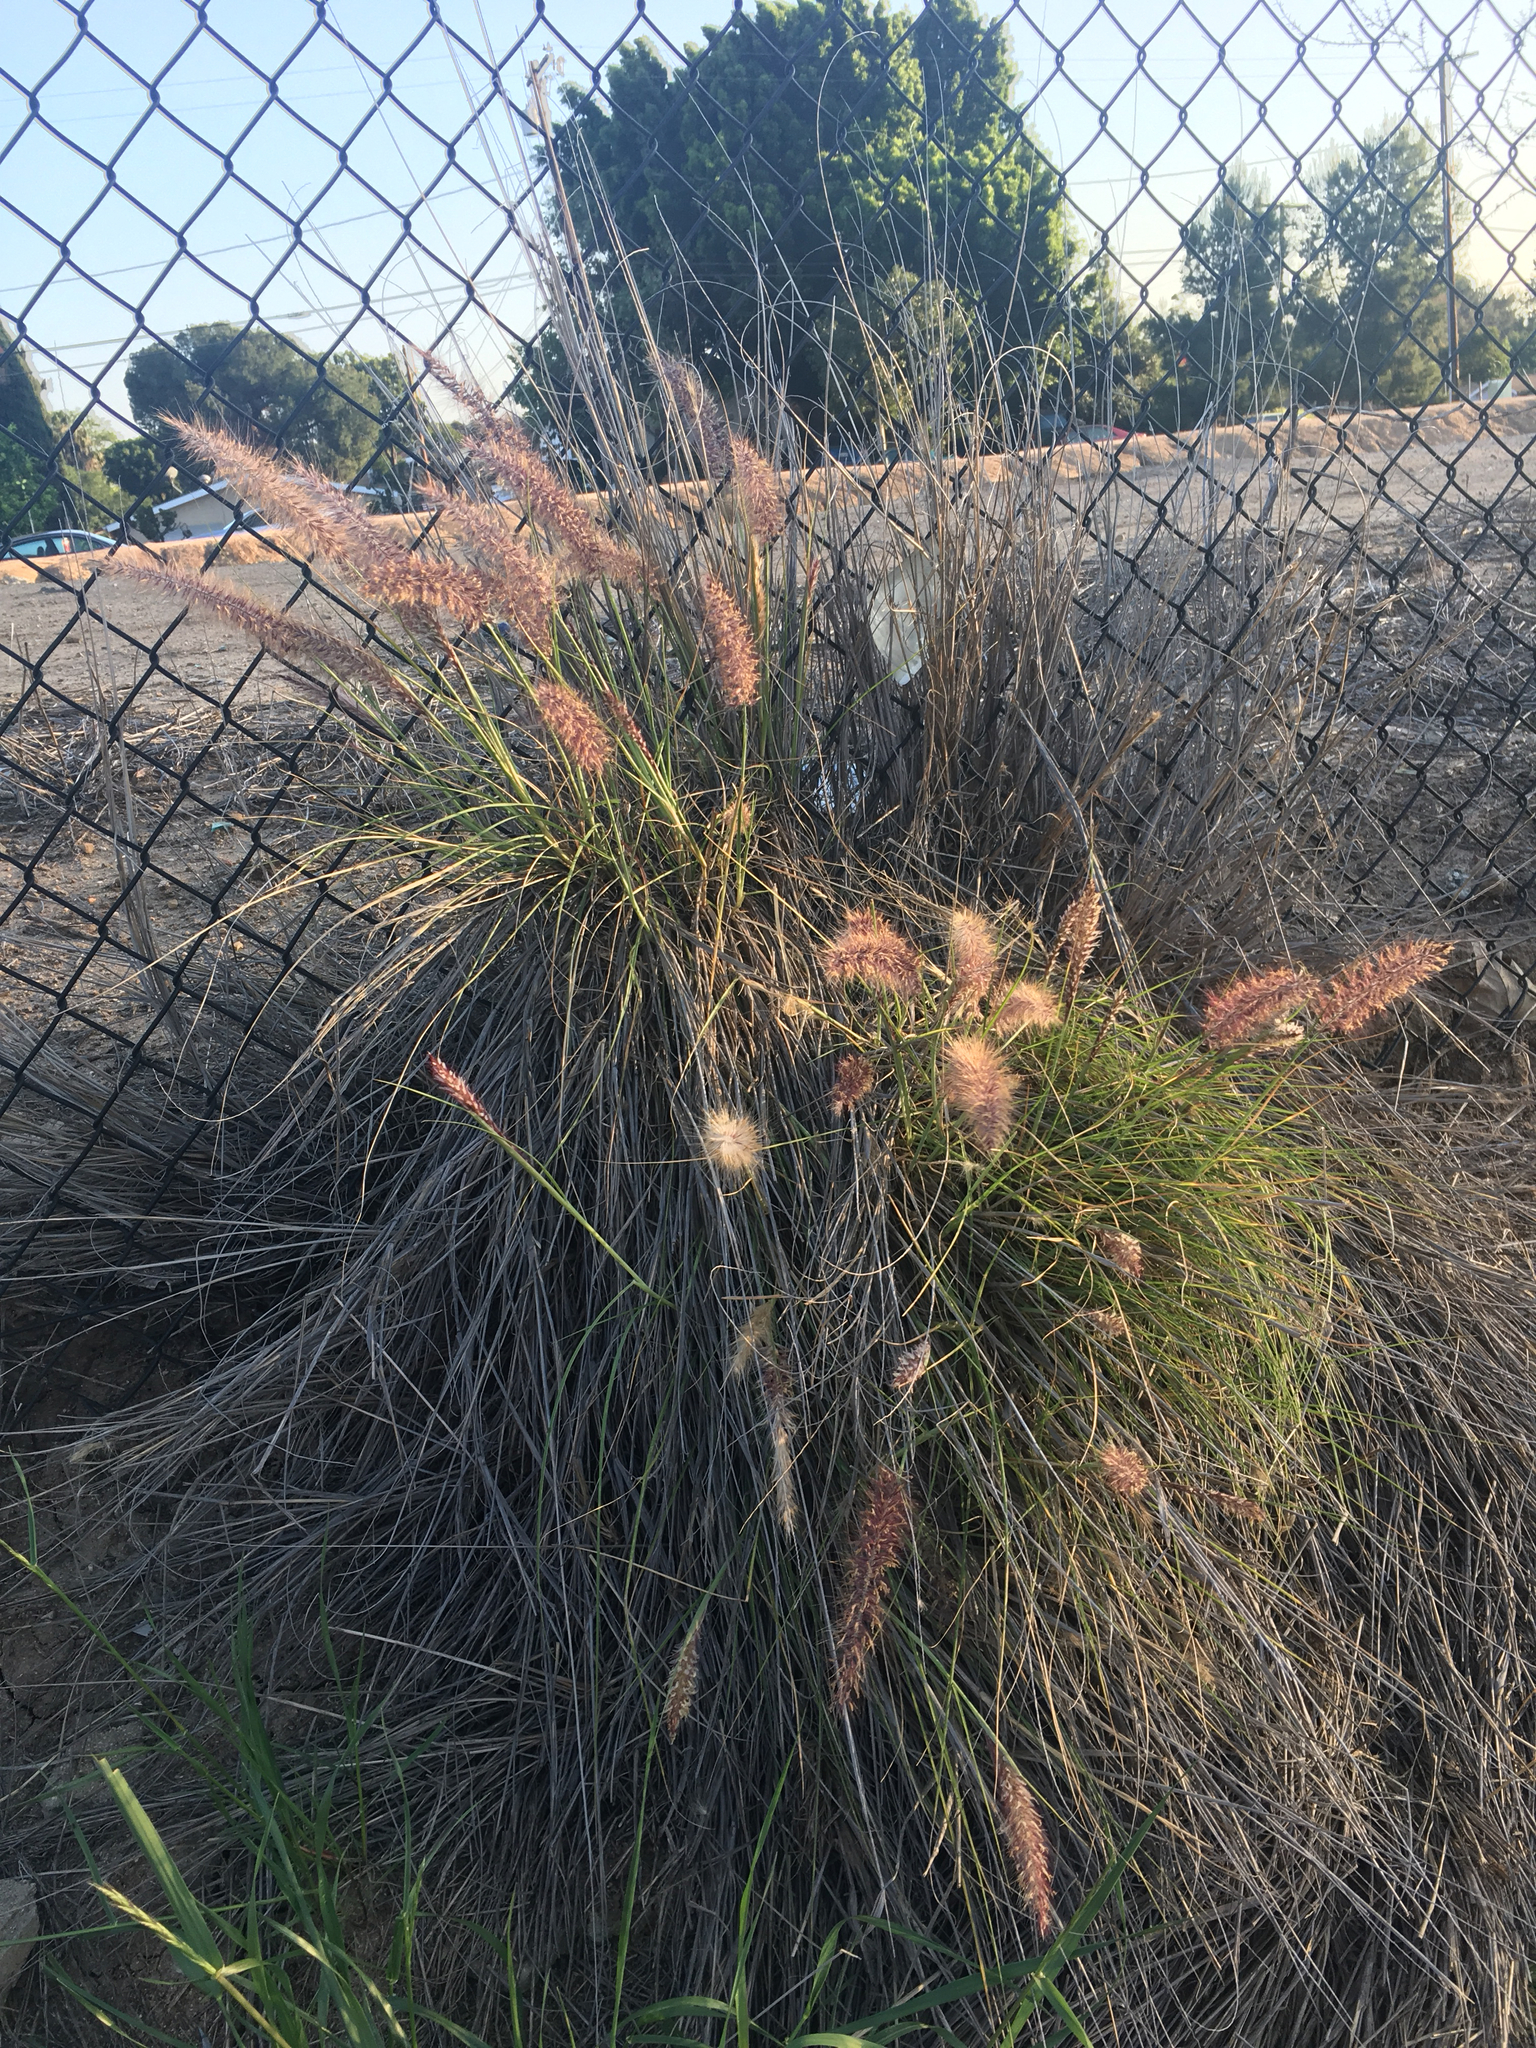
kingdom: Plantae
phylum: Tracheophyta
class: Liliopsida
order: Poales
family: Poaceae
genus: Cenchrus
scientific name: Cenchrus setaceus
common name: Crimson fountaingrass
